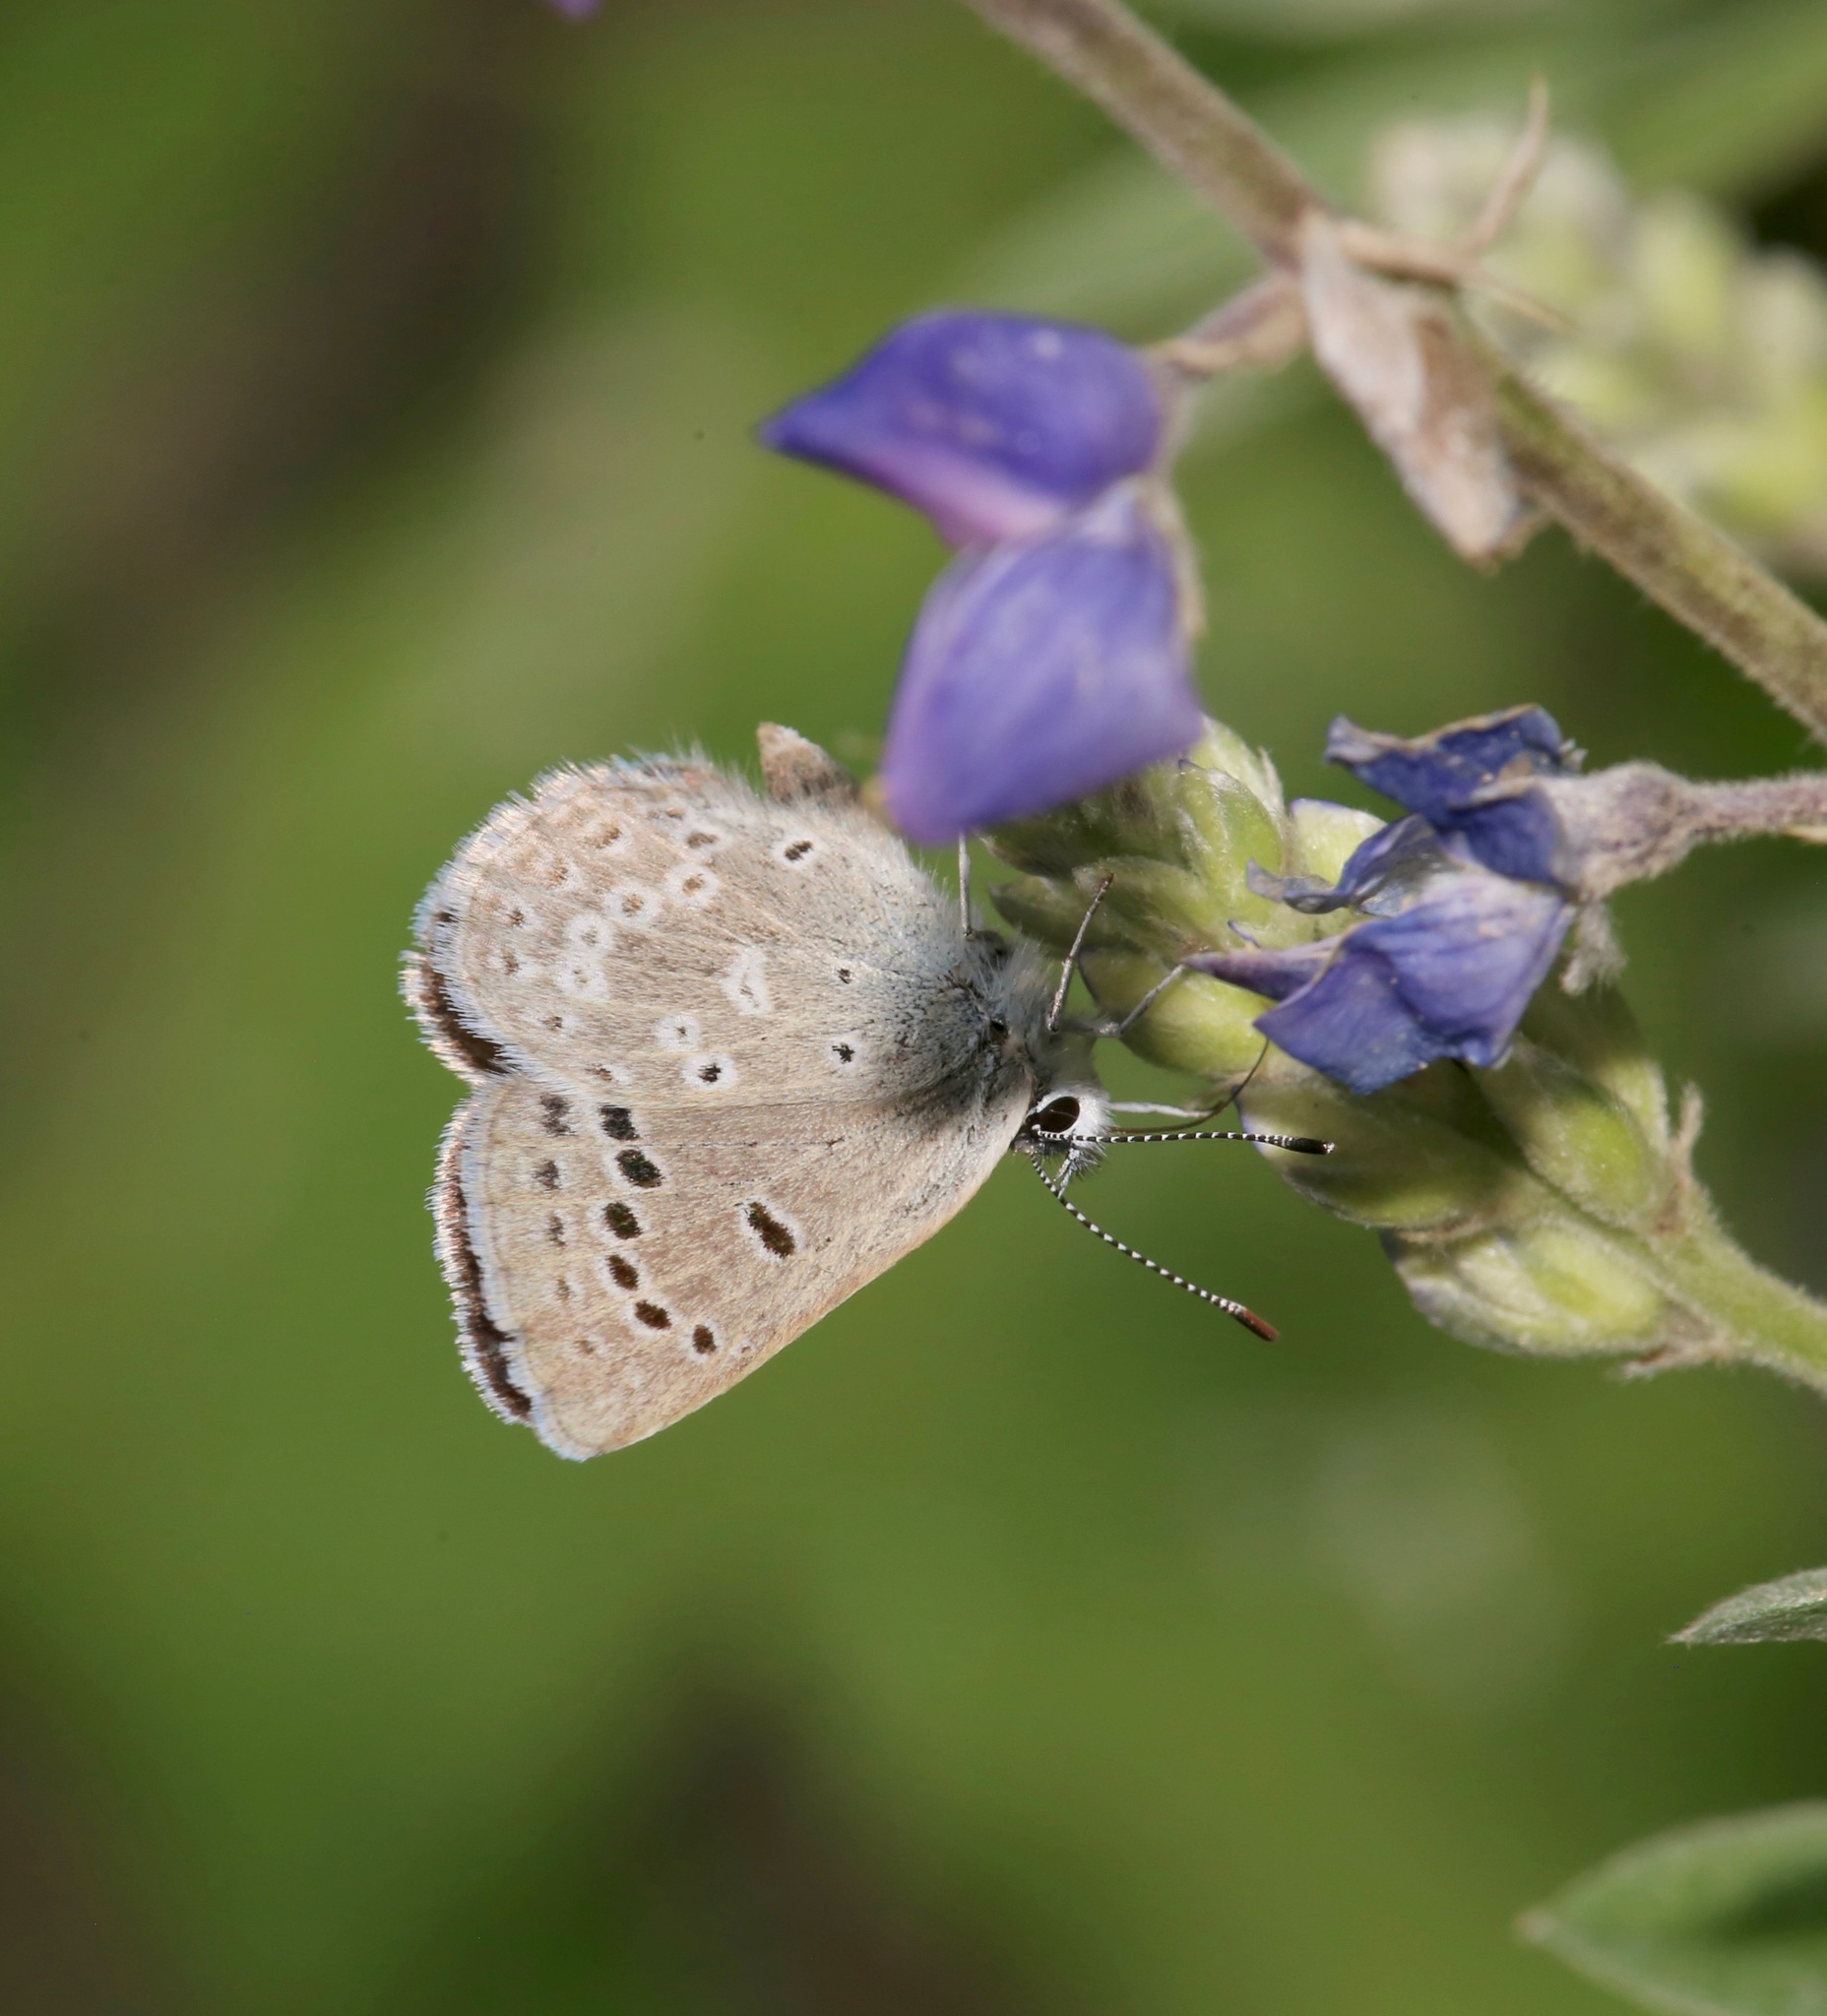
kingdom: Animalia
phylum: Arthropoda
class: Insecta
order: Lepidoptera
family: Lycaenidae
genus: Icaricia
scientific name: Icaricia icarioides
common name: Boisduval's blue
